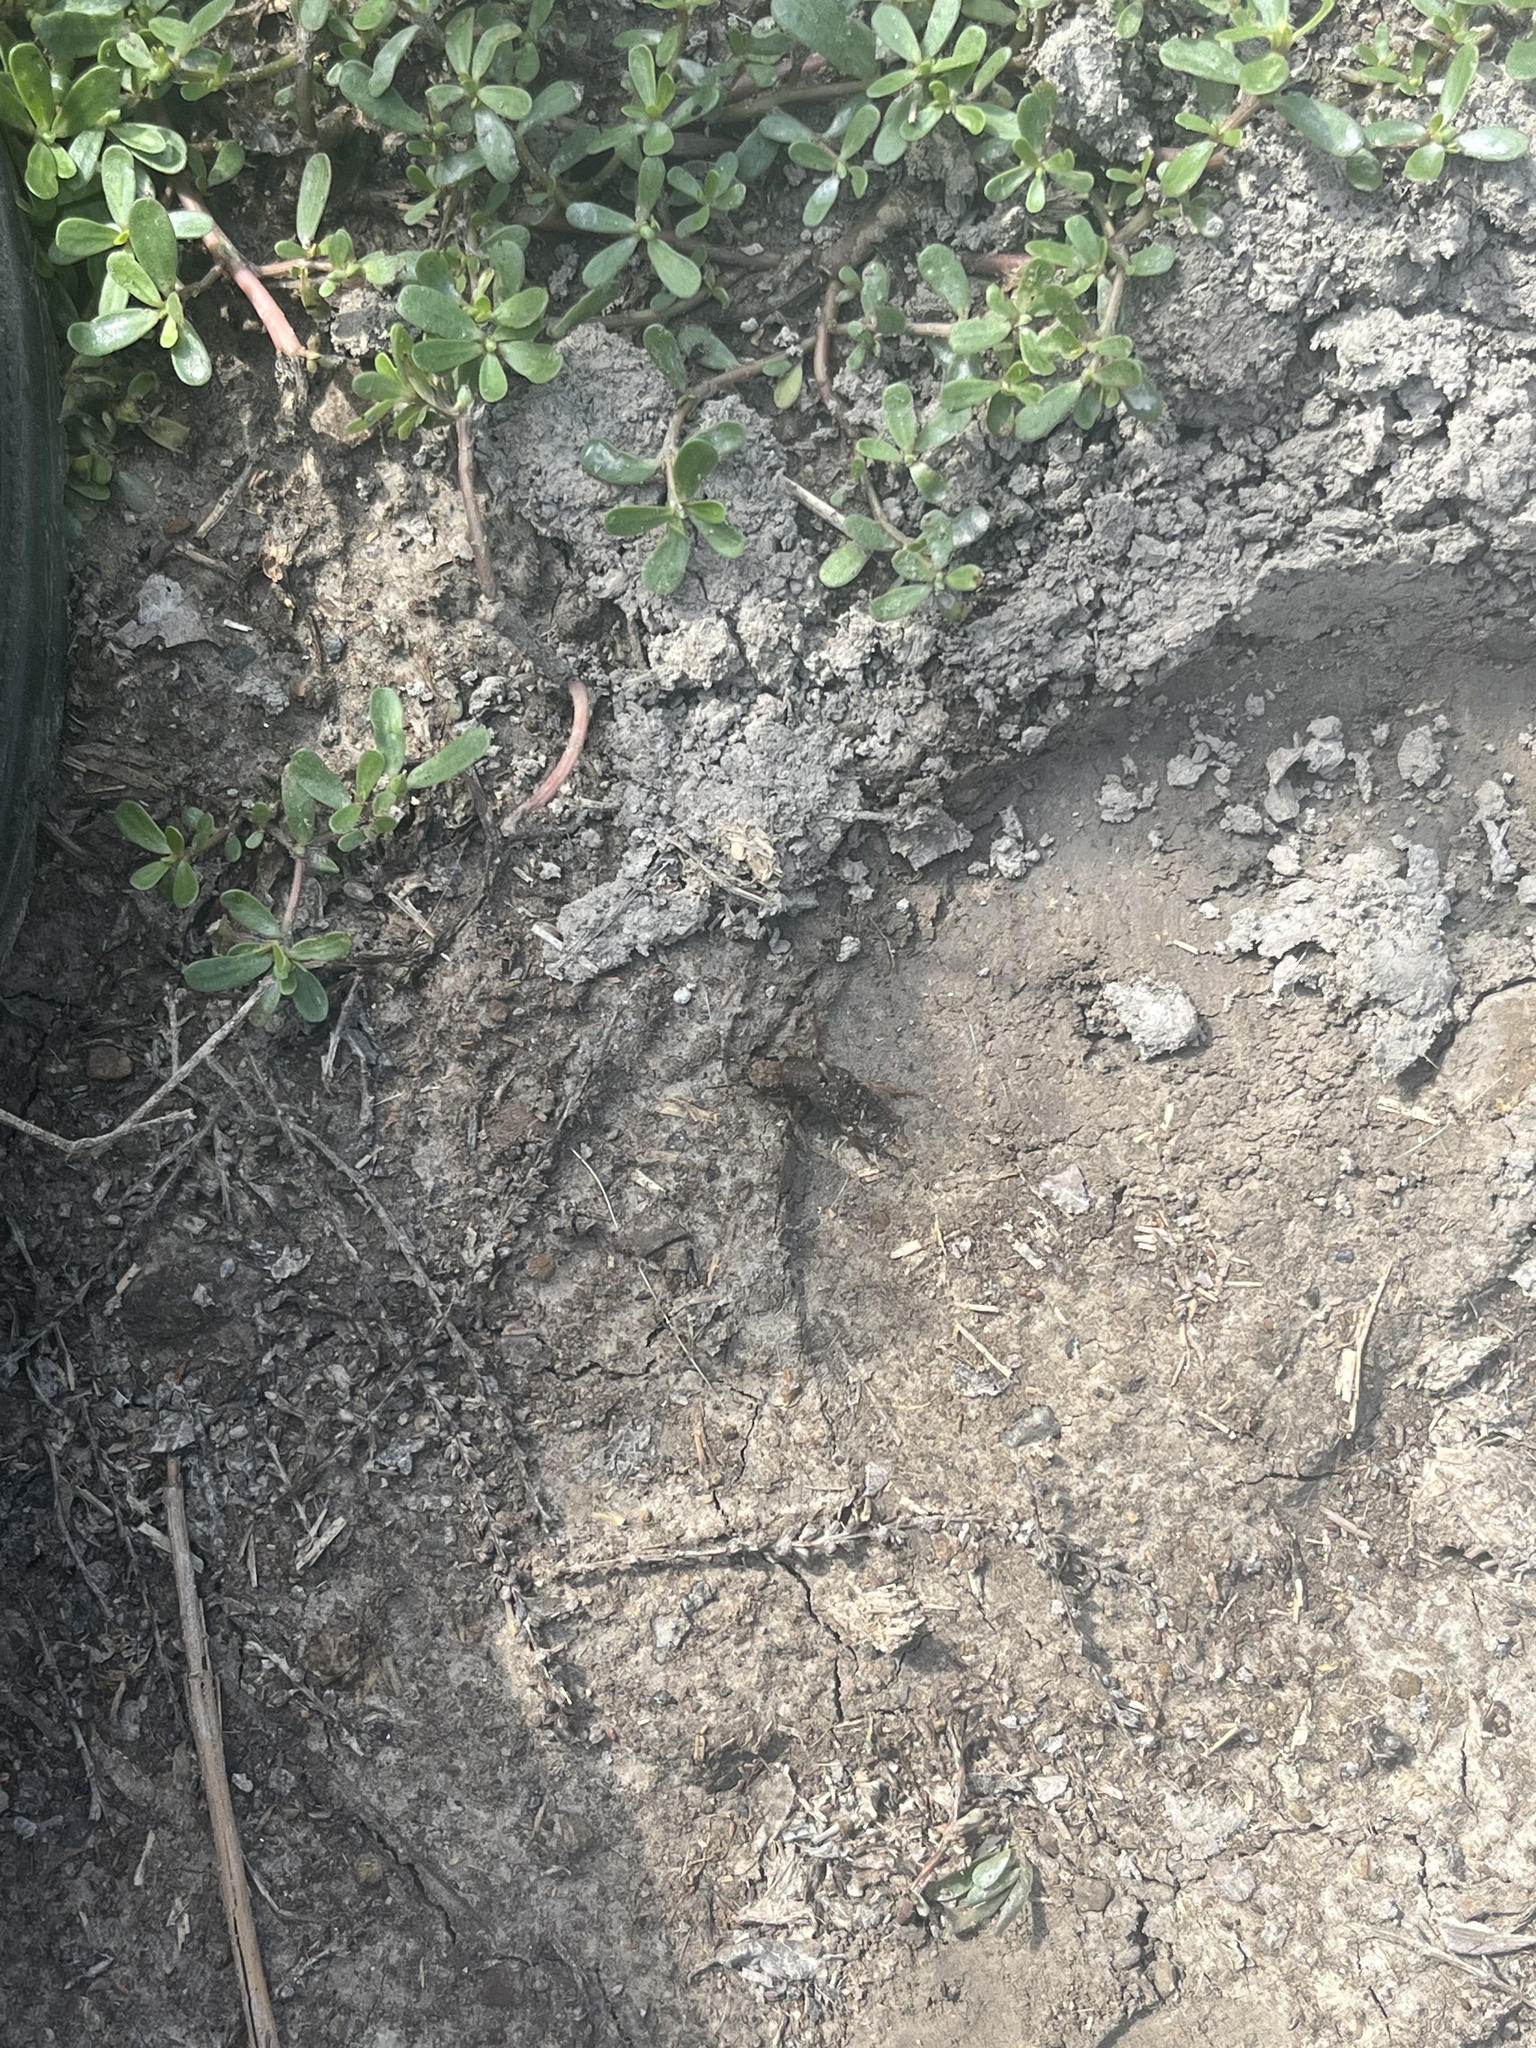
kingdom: Animalia
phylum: Arthropoda
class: Insecta
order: Coleoptera
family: Staphylinidae
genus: Platydracus
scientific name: Platydracus maculosus
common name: Brown rove beetle
